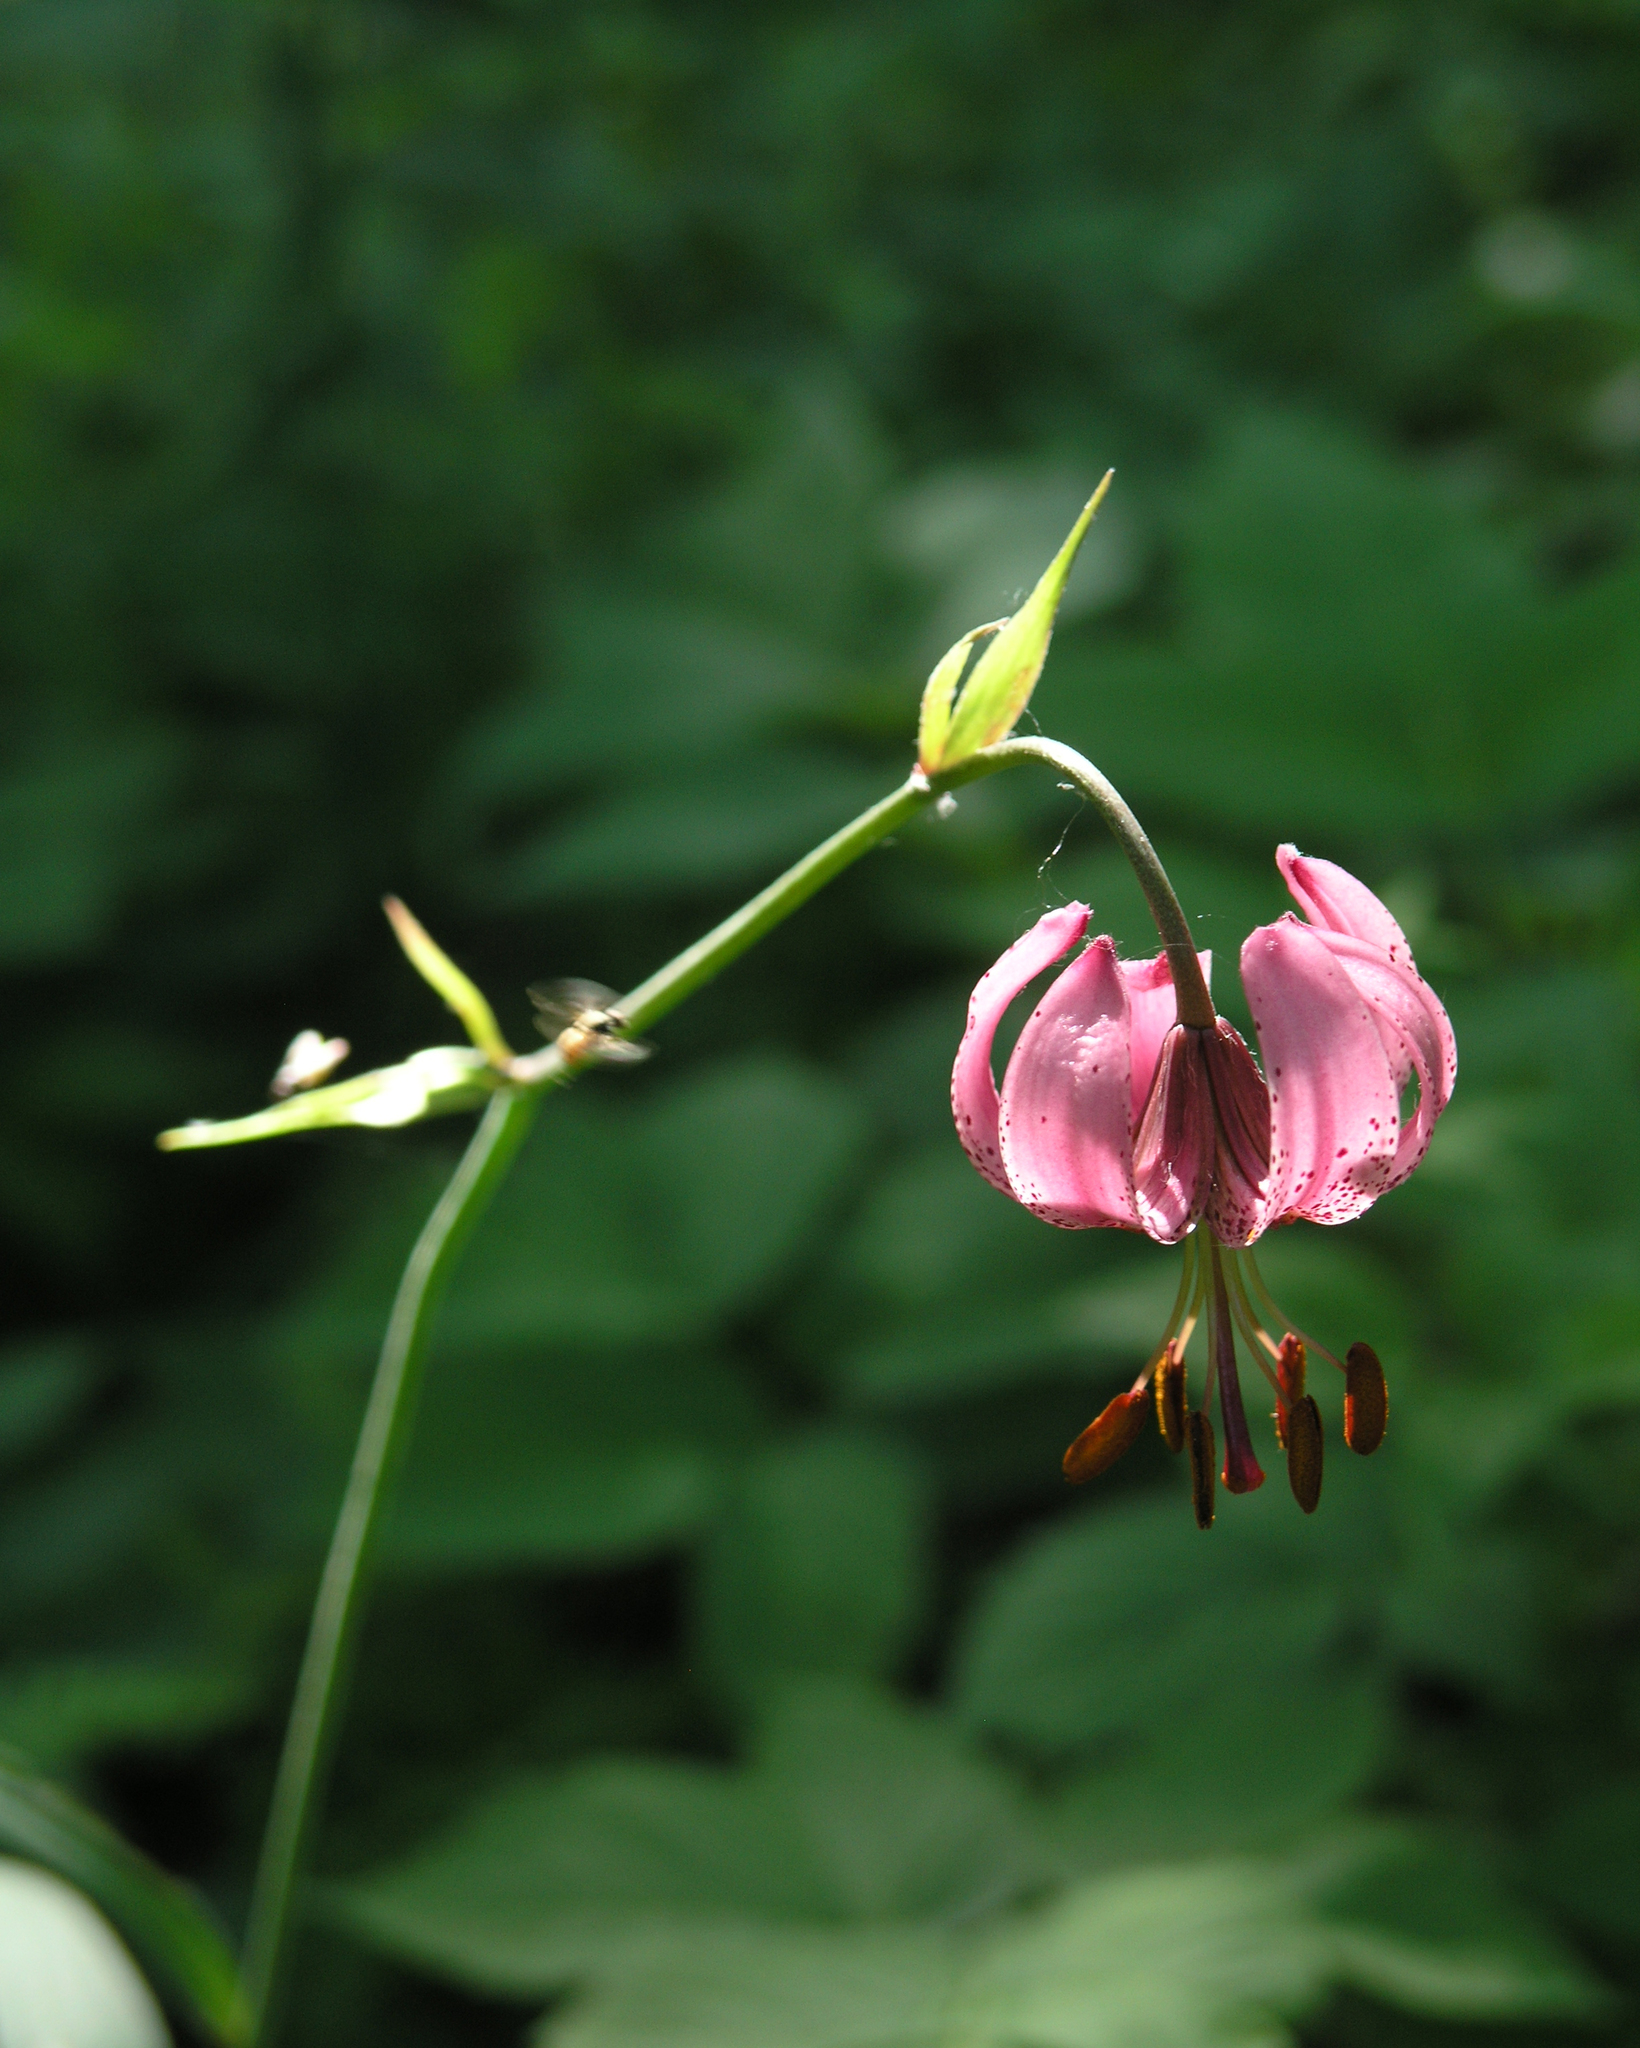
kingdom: Plantae
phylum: Tracheophyta
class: Liliopsida
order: Liliales
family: Liliaceae
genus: Lilium
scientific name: Lilium martagon
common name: Martagon lily
